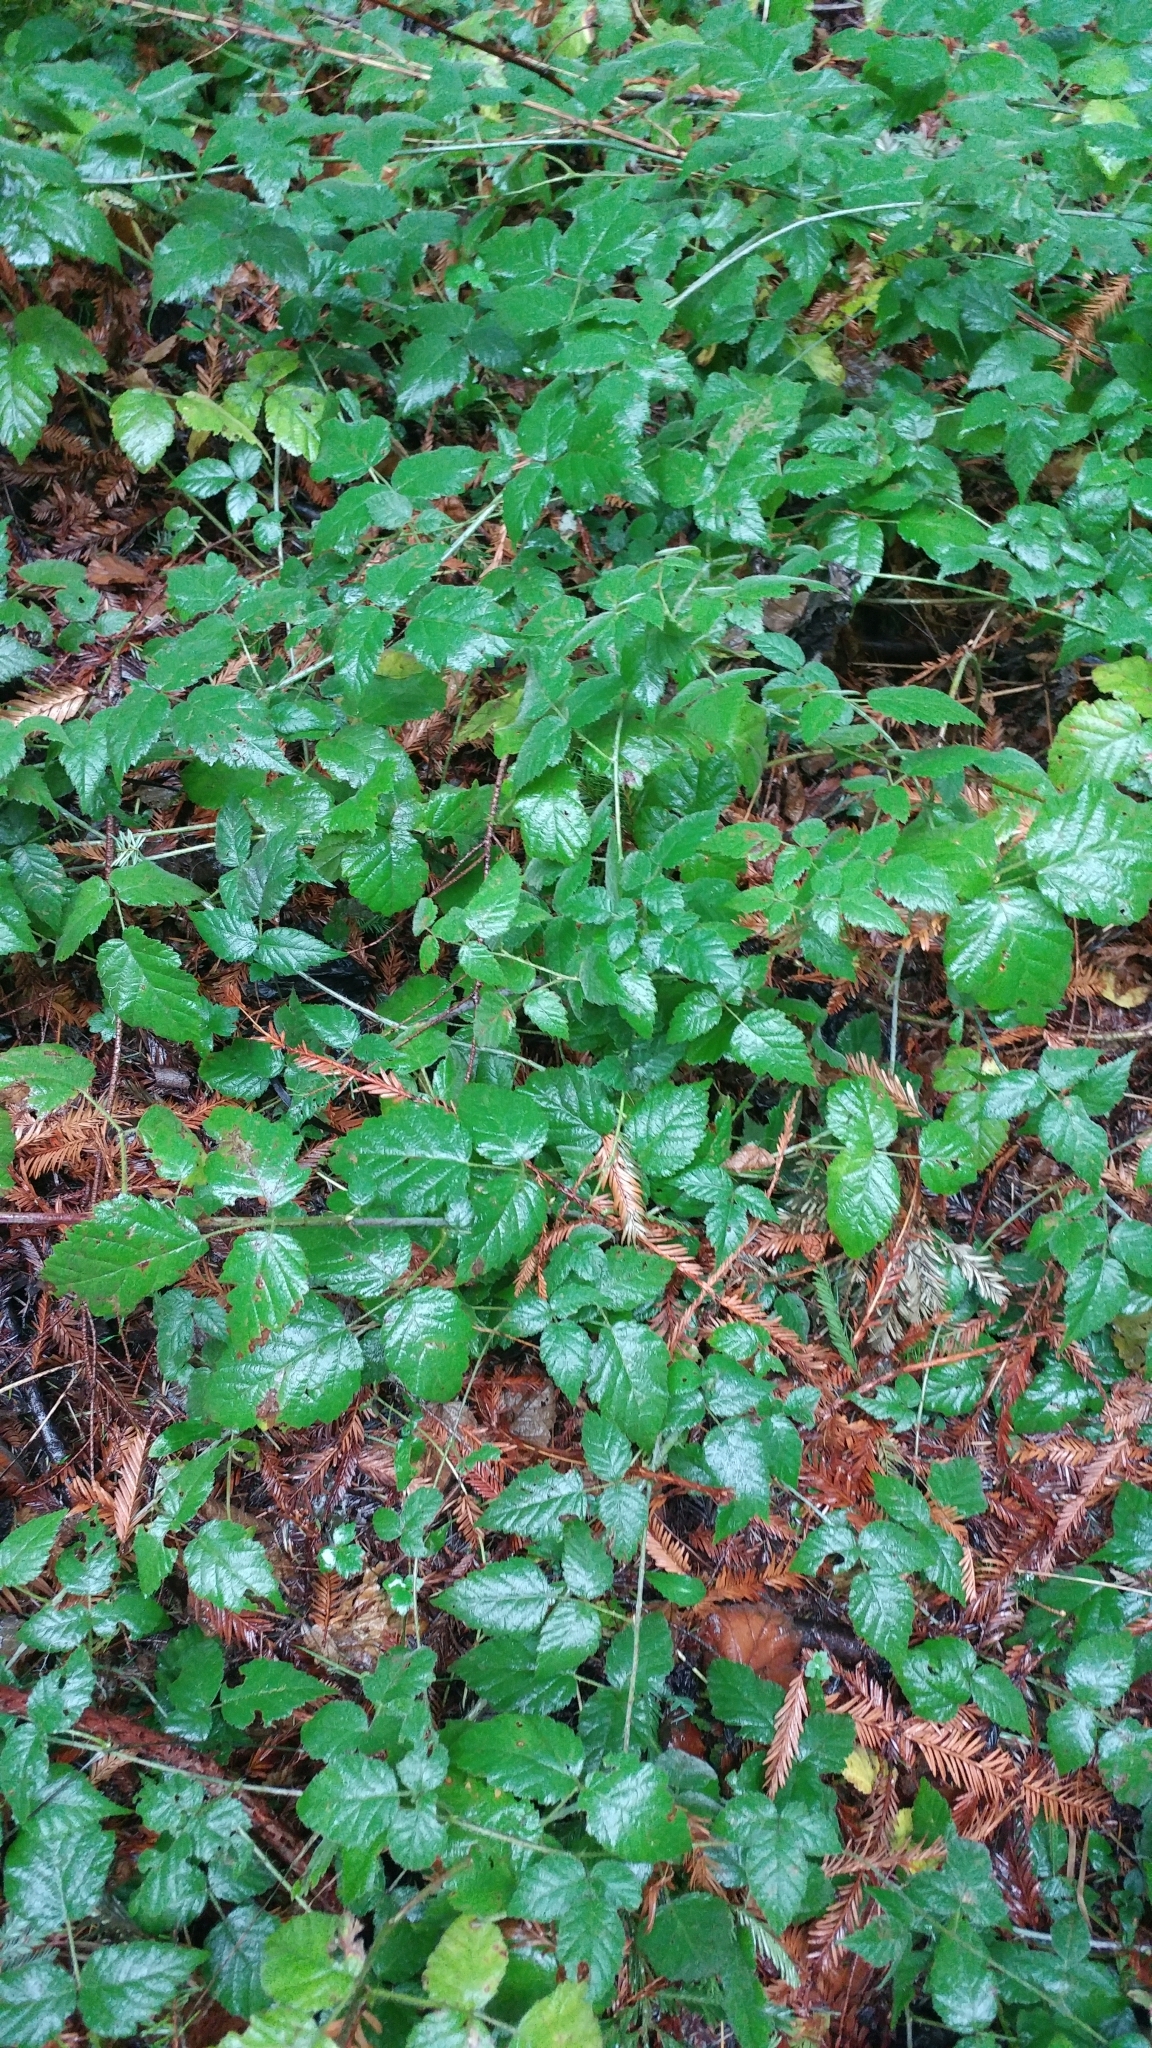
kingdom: Plantae
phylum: Tracheophyta
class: Magnoliopsida
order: Rosales
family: Rosaceae
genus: Rubus
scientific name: Rubus ursinus
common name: Pacific blackberry
